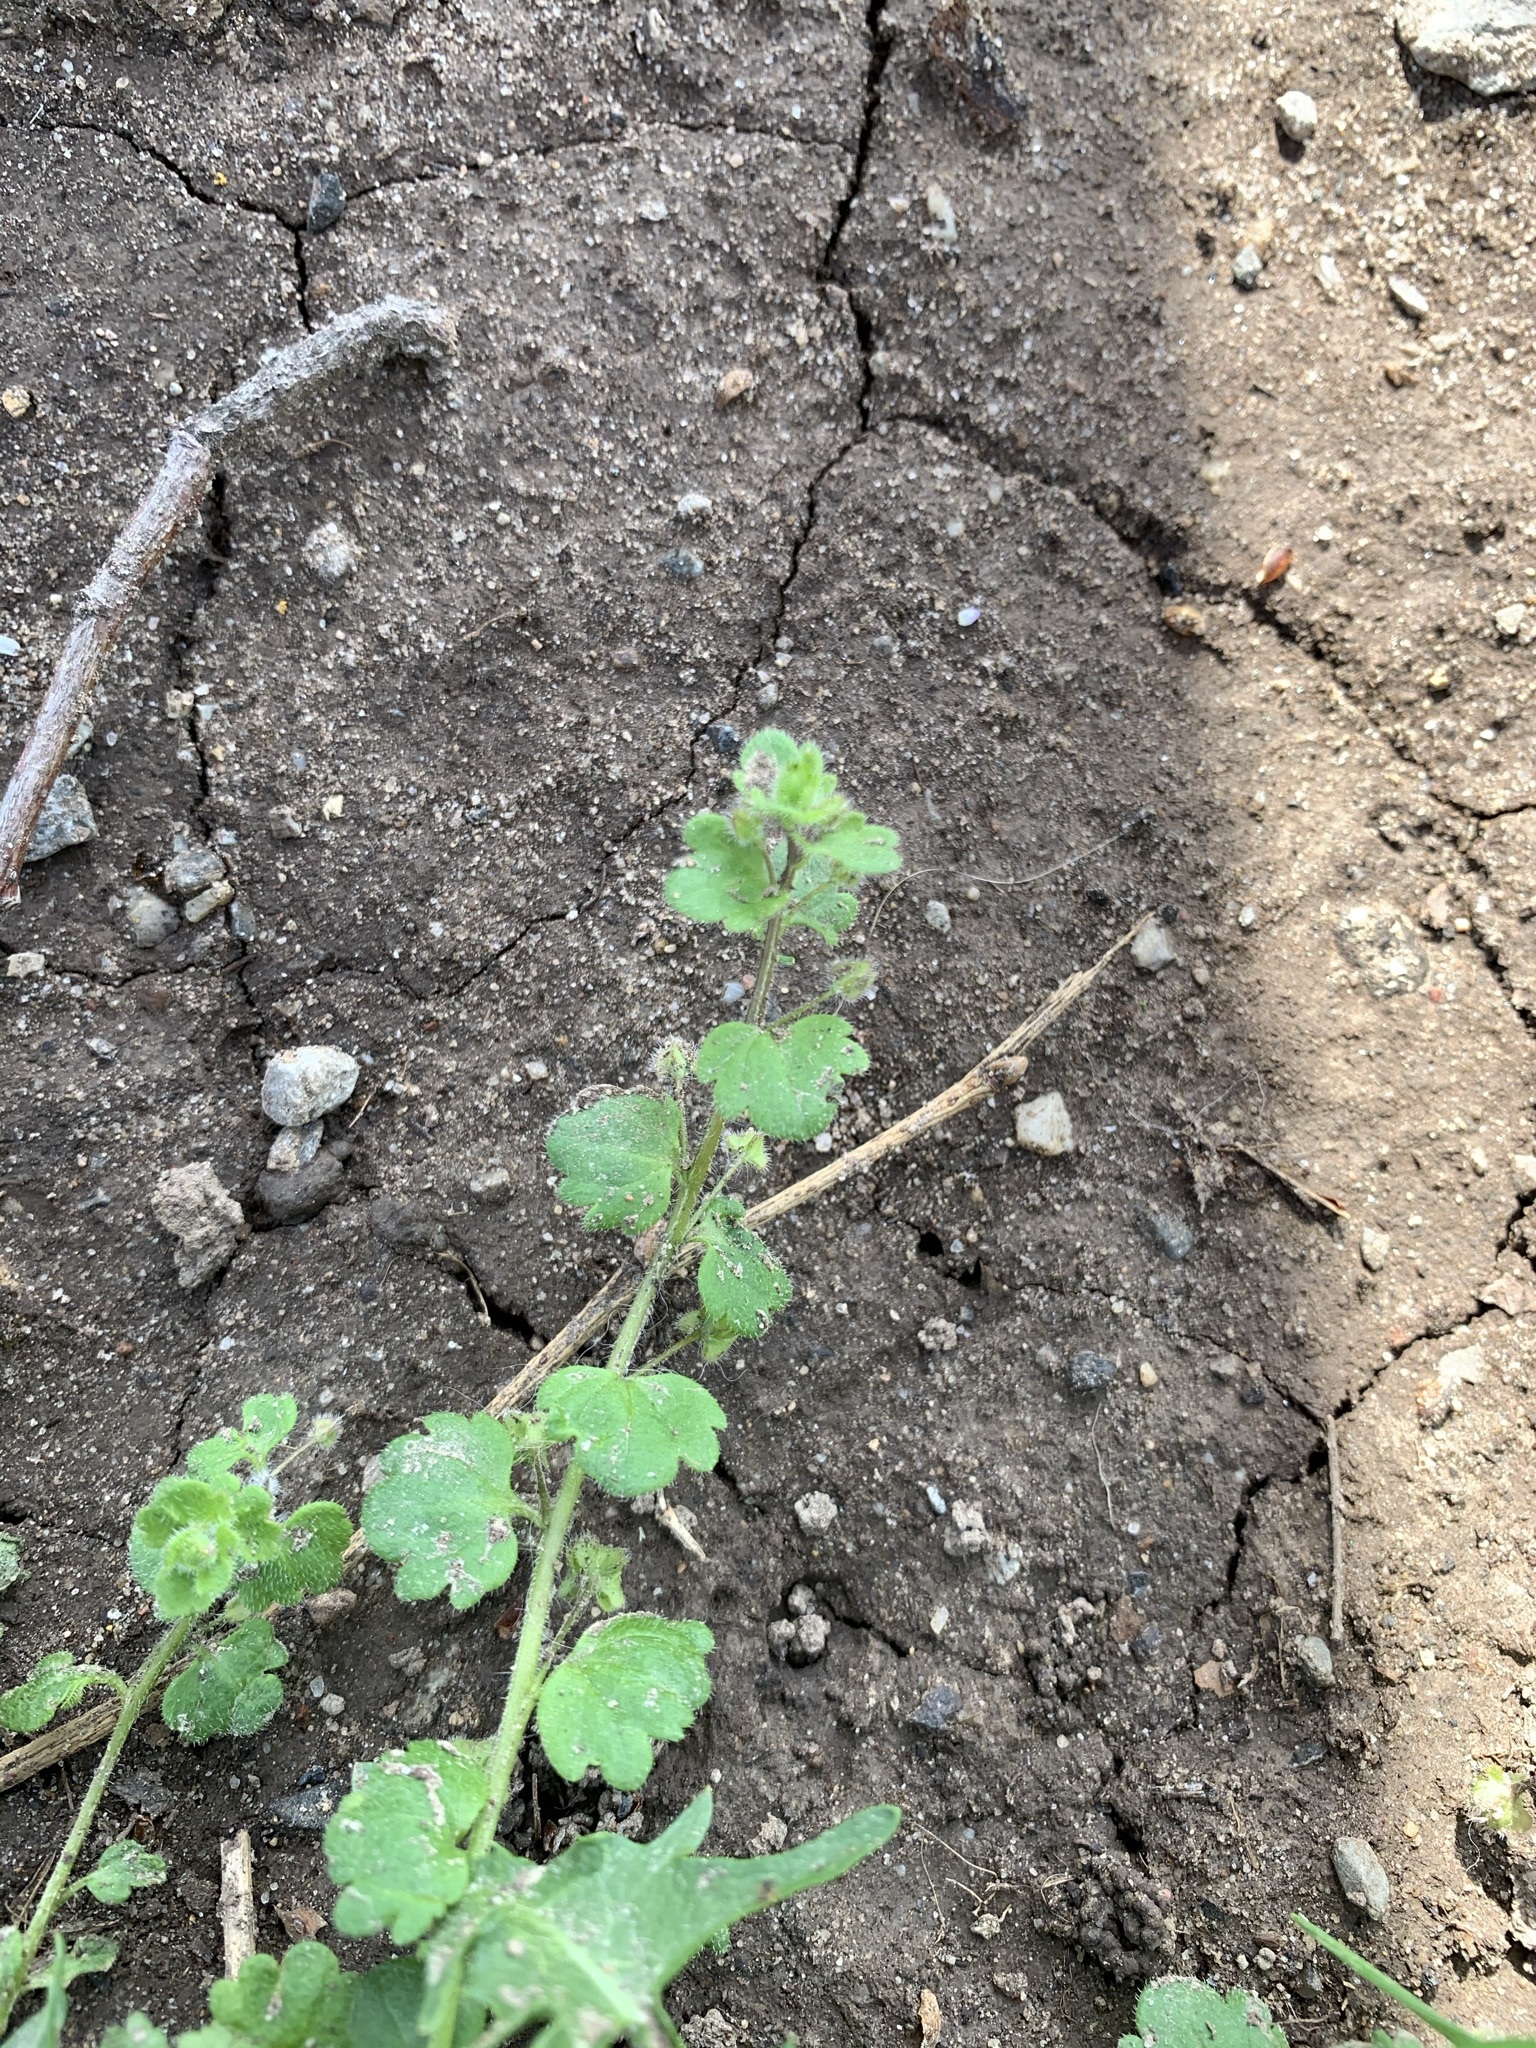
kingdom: Plantae
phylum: Tracheophyta
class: Magnoliopsida
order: Lamiales
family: Plantaginaceae
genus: Veronica
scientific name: Veronica sublobata
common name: False ivy-leaved speedwell
